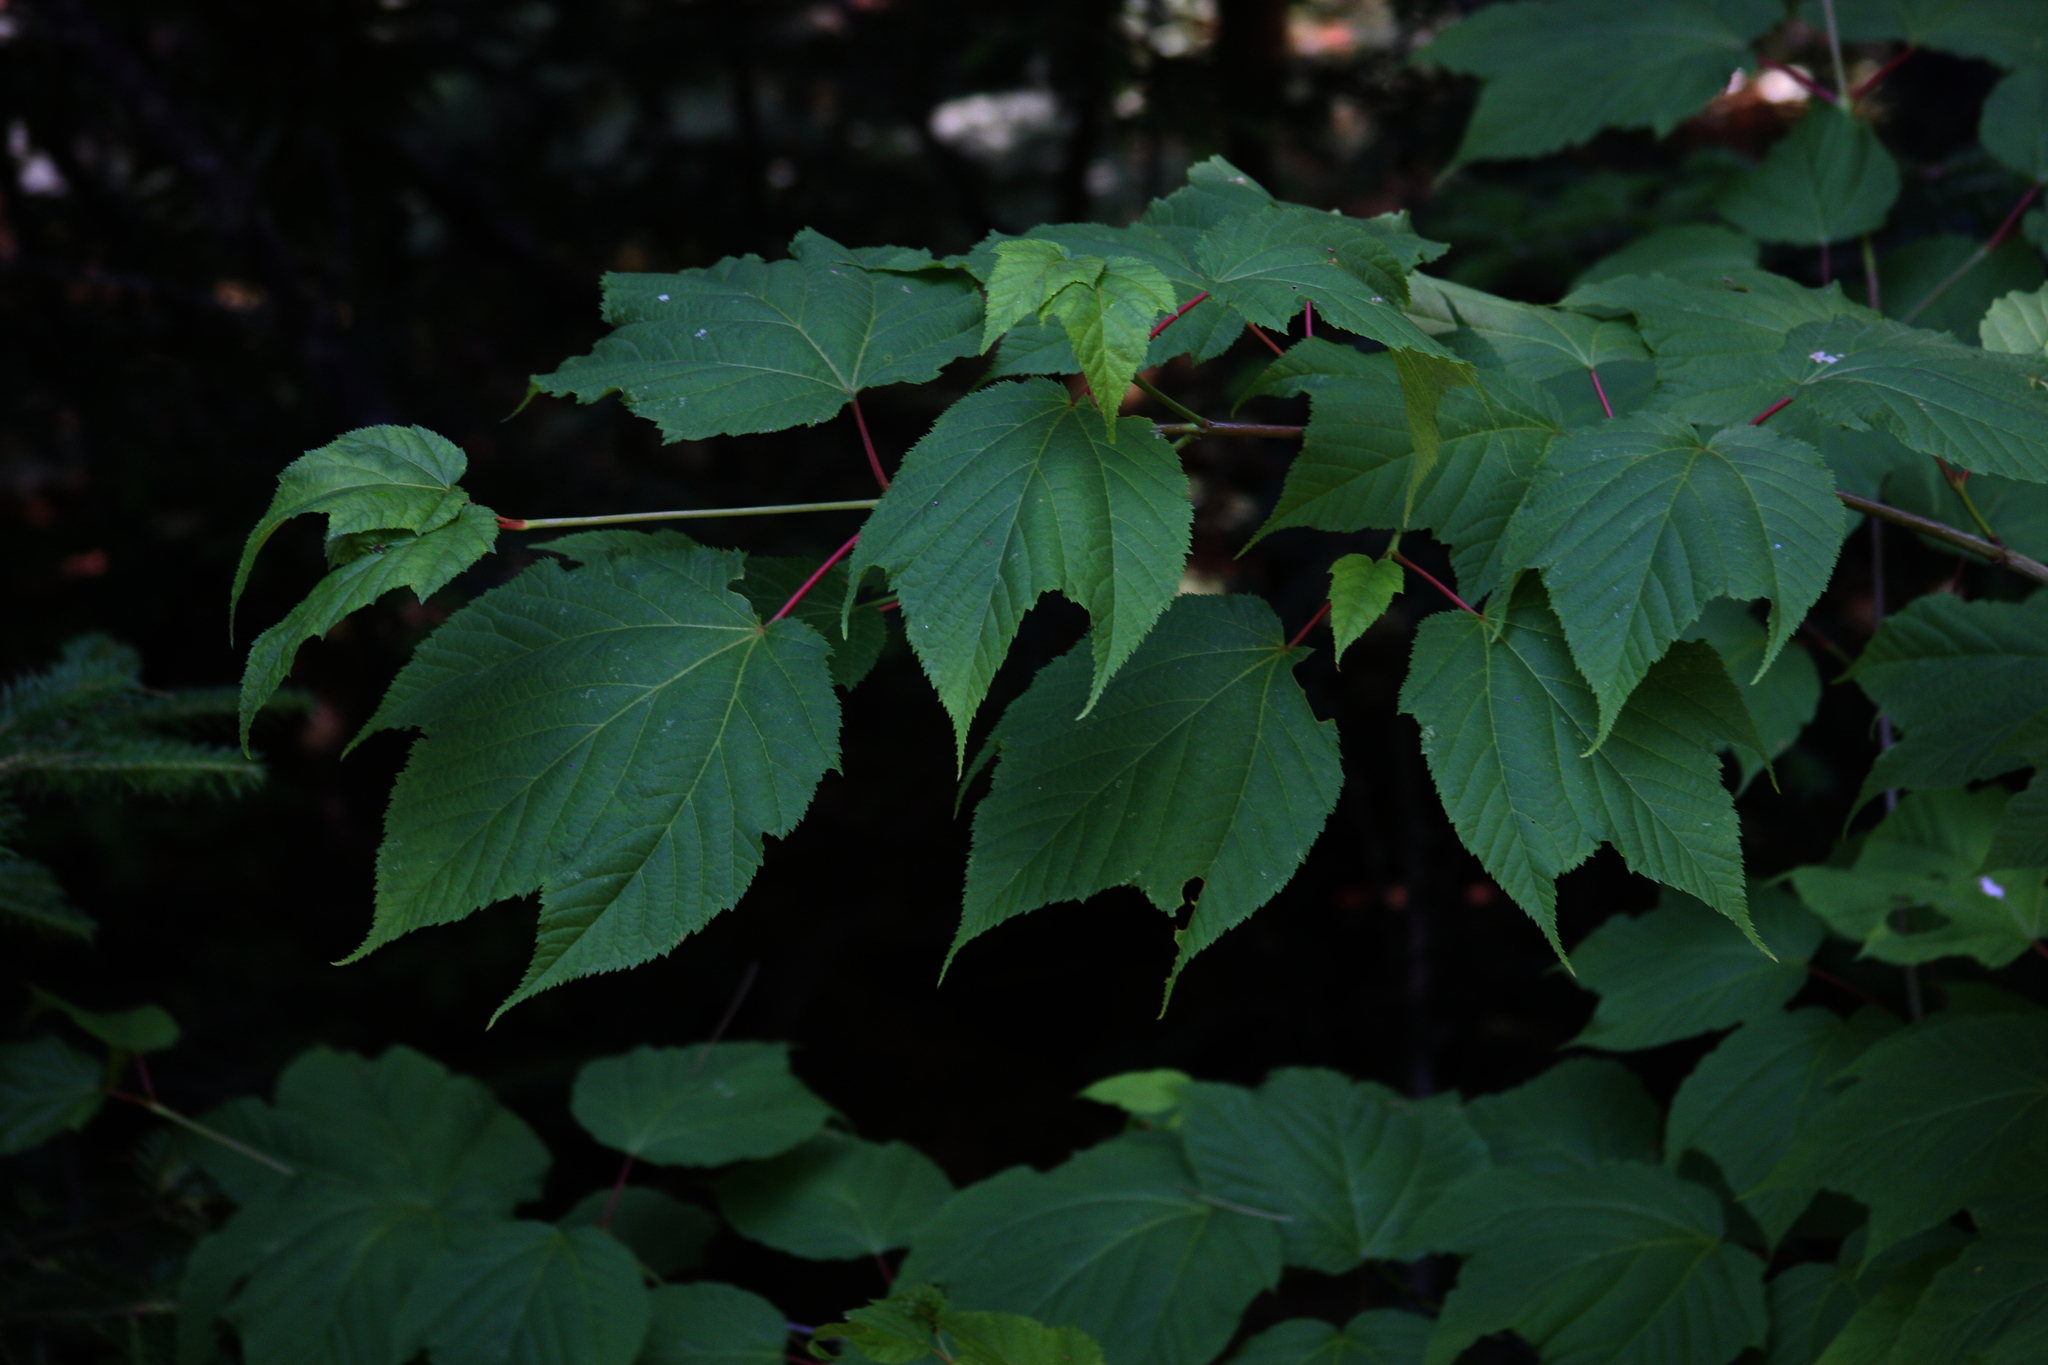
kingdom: Plantae
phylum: Tracheophyta
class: Magnoliopsida
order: Sapindales
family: Sapindaceae
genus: Acer
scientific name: Acer pensylvanicum
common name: Moosewood
